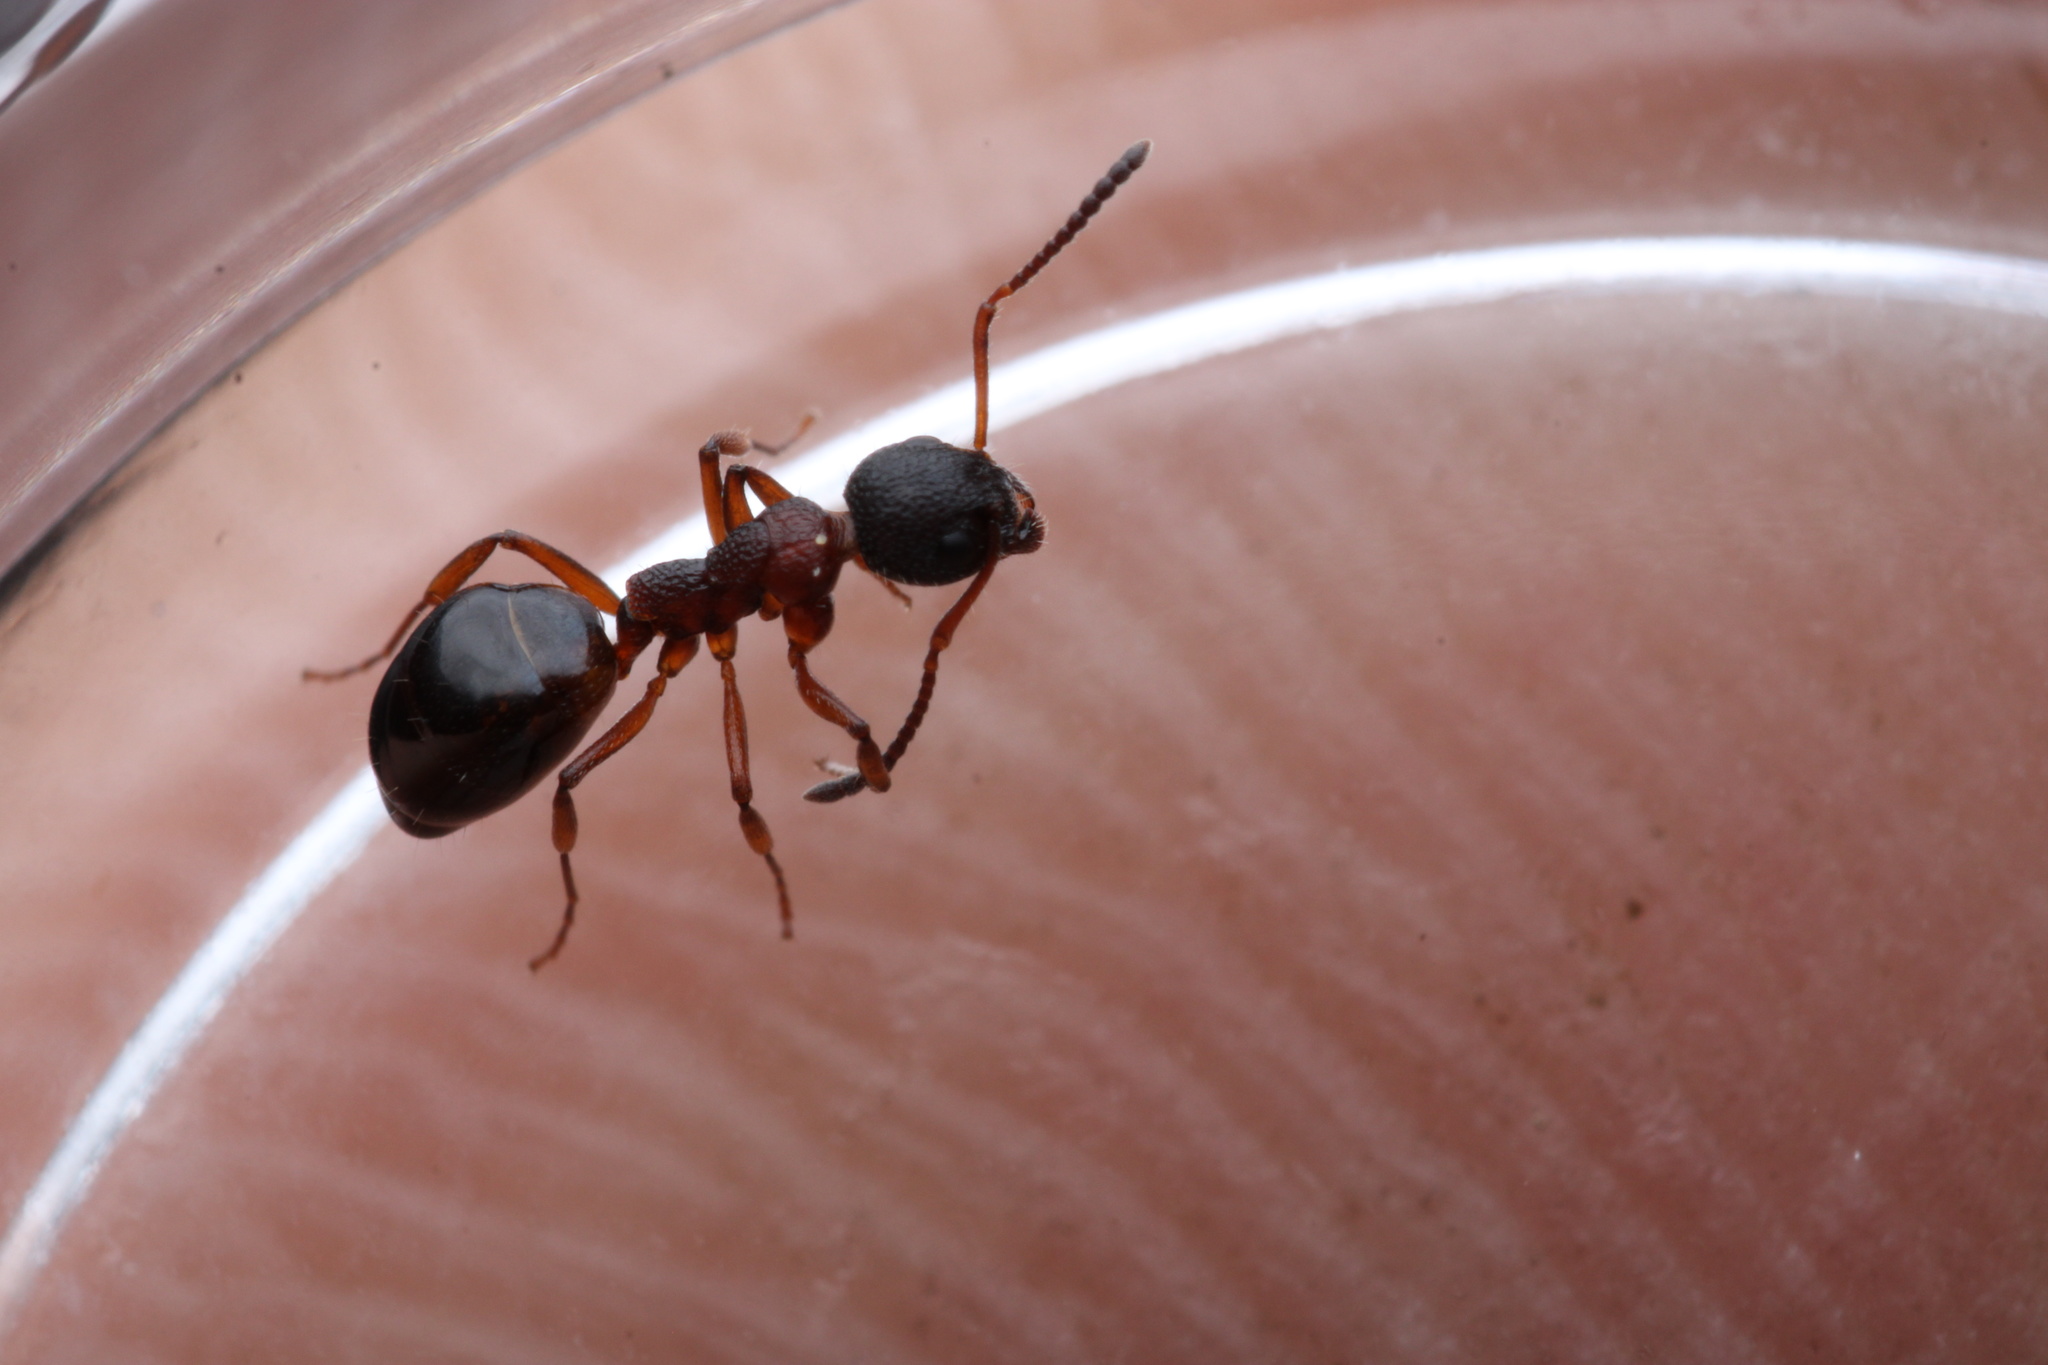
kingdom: Animalia
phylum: Arthropoda
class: Insecta
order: Hymenoptera
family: Formicidae
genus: Dolichoderus
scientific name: Dolichoderus plagiatus
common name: Mottled dolichoderus
